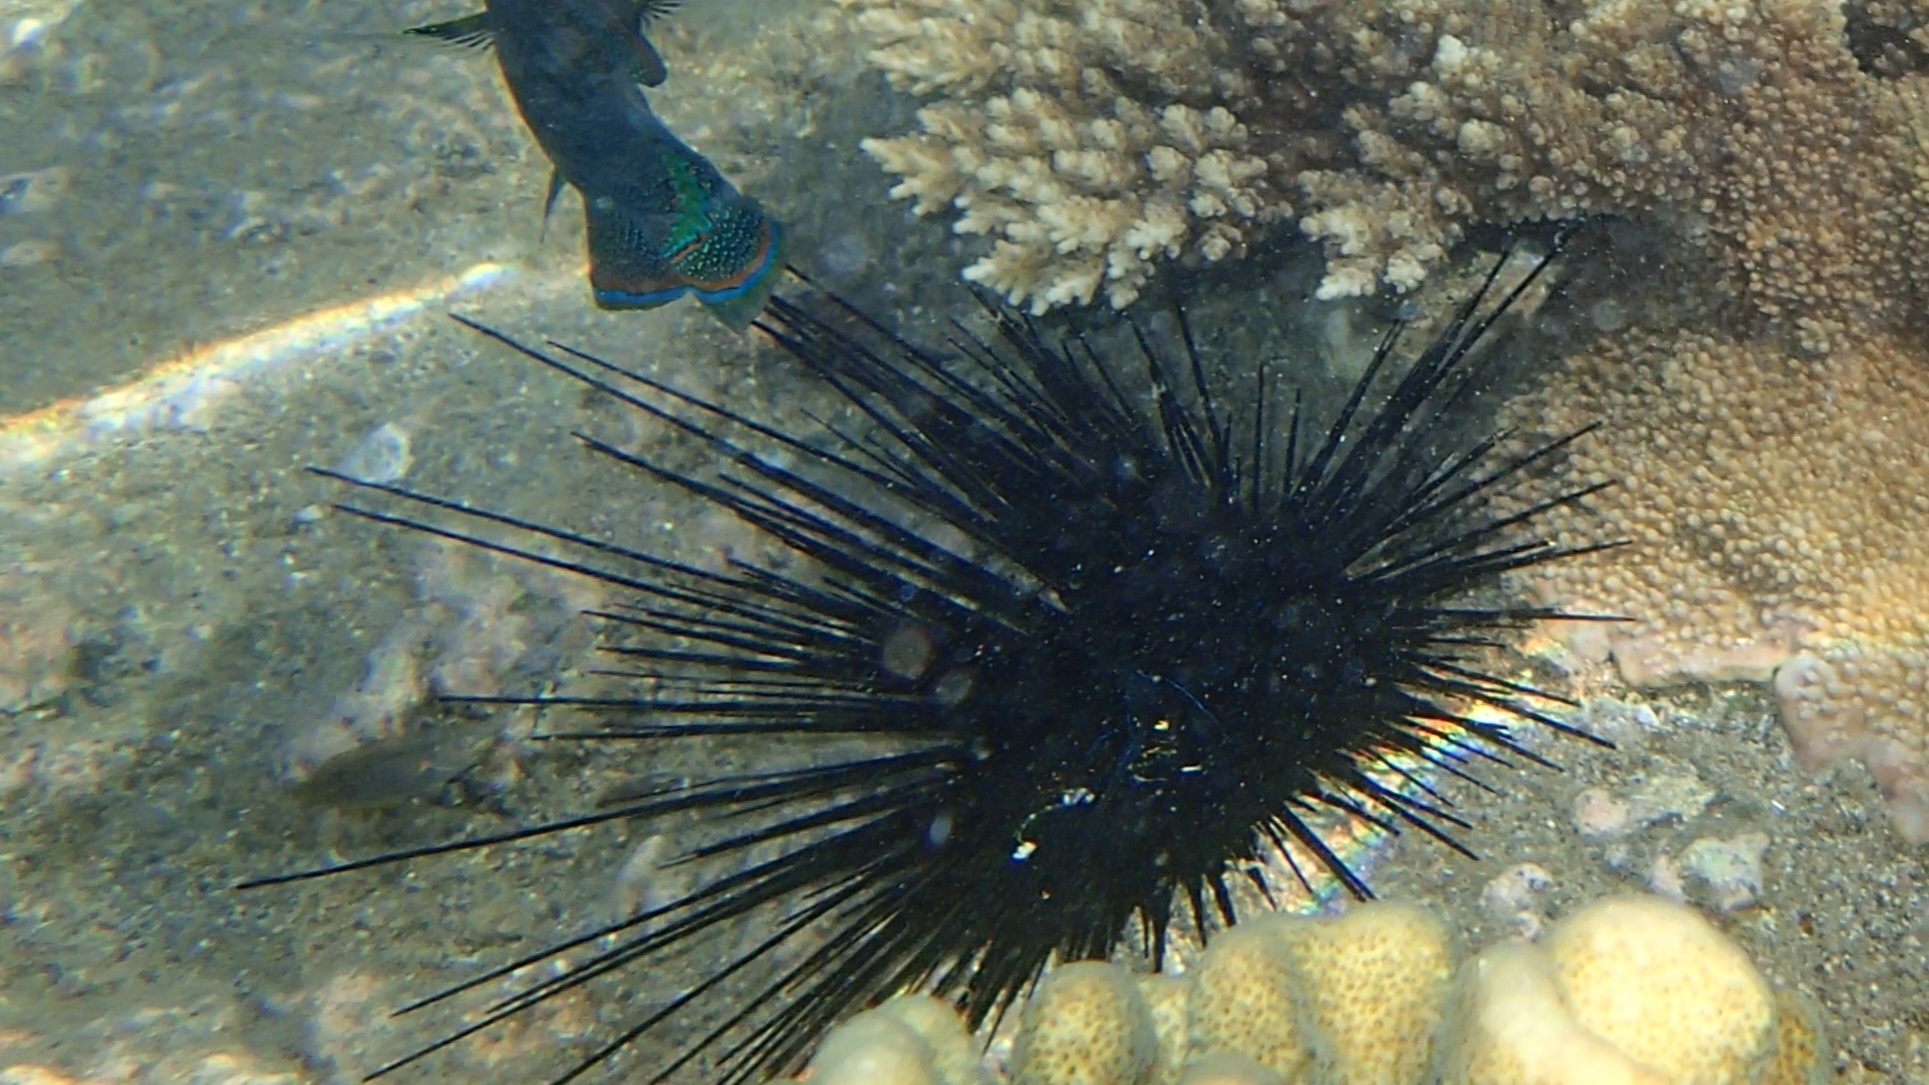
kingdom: Animalia
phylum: Echinodermata
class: Echinoidea
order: Diadematoida
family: Diadematidae
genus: Diadema
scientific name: Diadema savignyi
